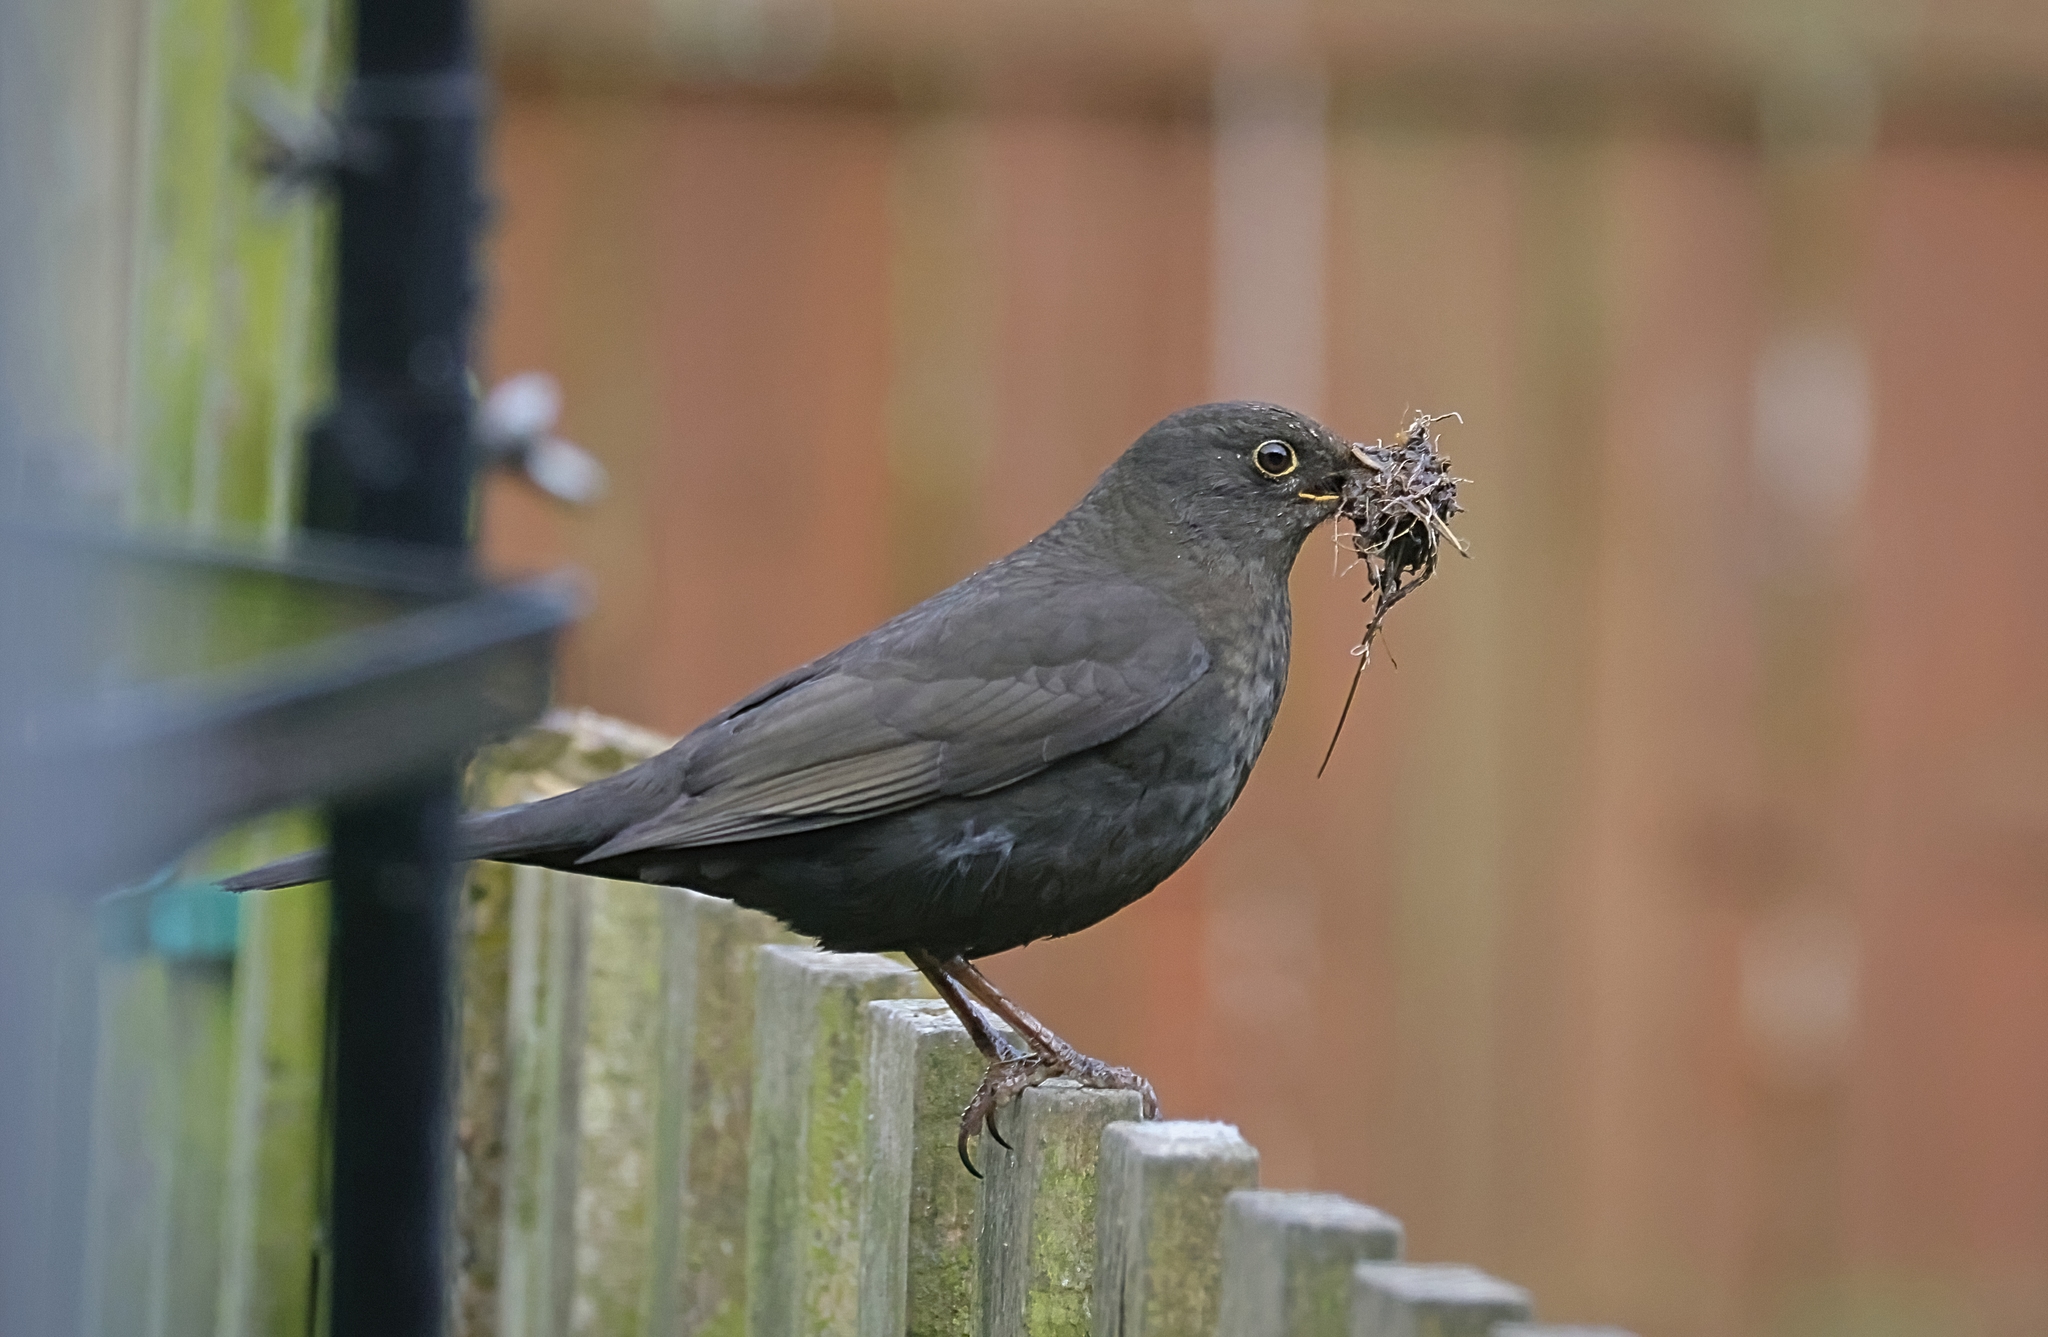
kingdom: Animalia
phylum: Chordata
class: Aves
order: Passeriformes
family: Turdidae
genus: Turdus
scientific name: Turdus merula
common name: Common blackbird
